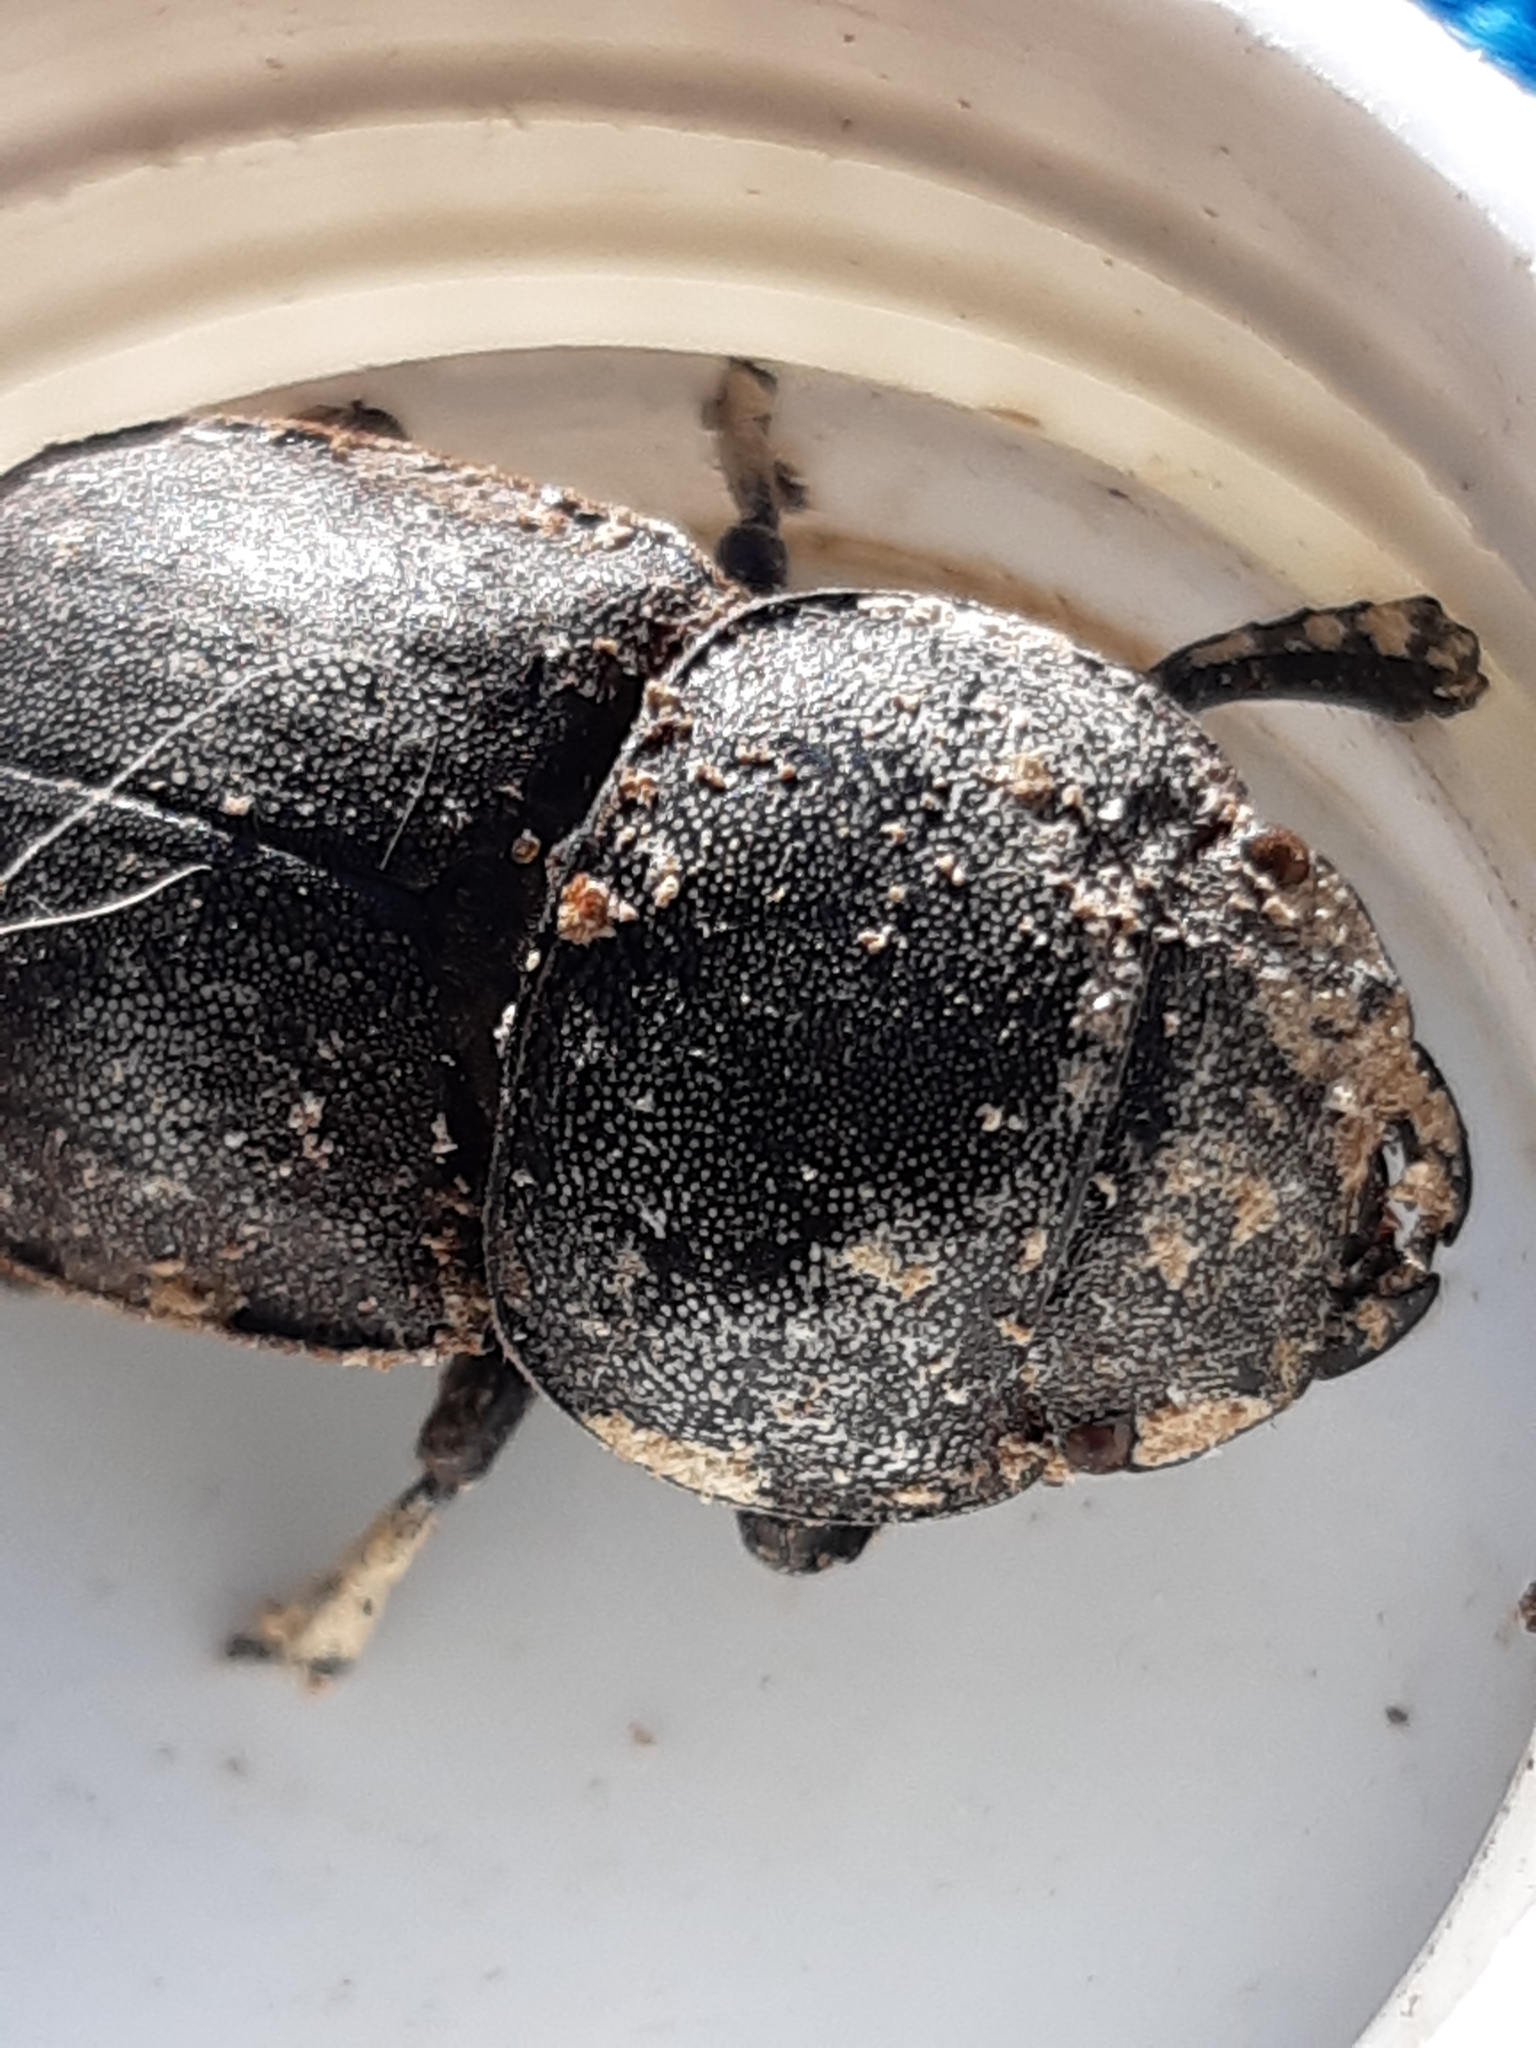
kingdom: Animalia
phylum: Arthropoda
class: Insecta
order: Coleoptera
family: Lucanidae
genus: Geodorcus
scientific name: Geodorcus helmsi
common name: Helm's stag beetle
